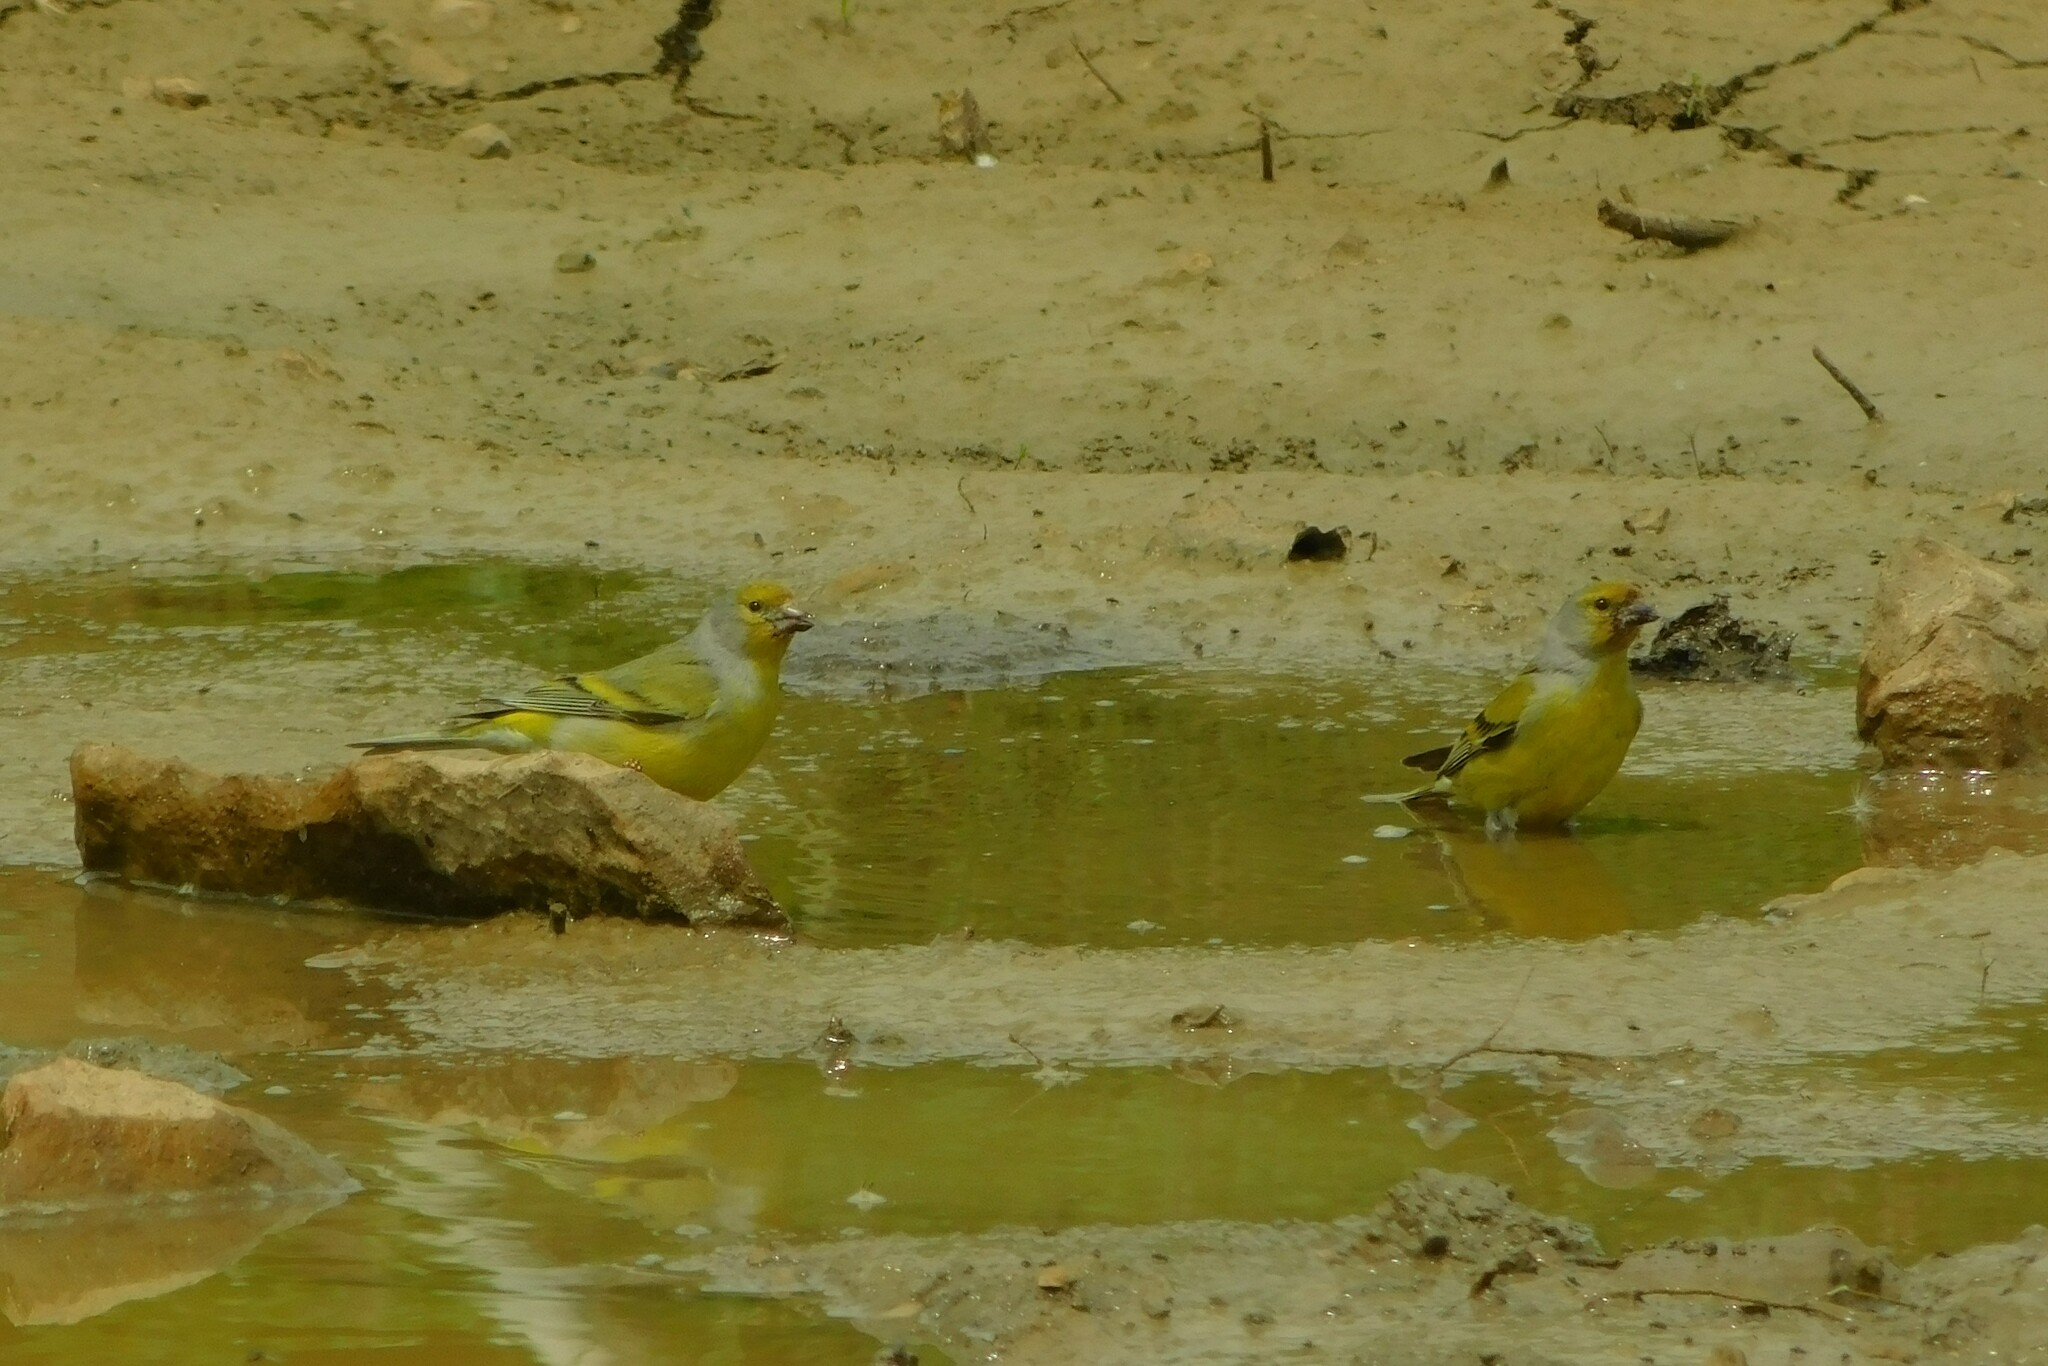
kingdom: Animalia
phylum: Chordata
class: Aves
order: Passeriformes
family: Fringillidae
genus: Carduelis
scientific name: Carduelis citrinella
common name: Citril finch
